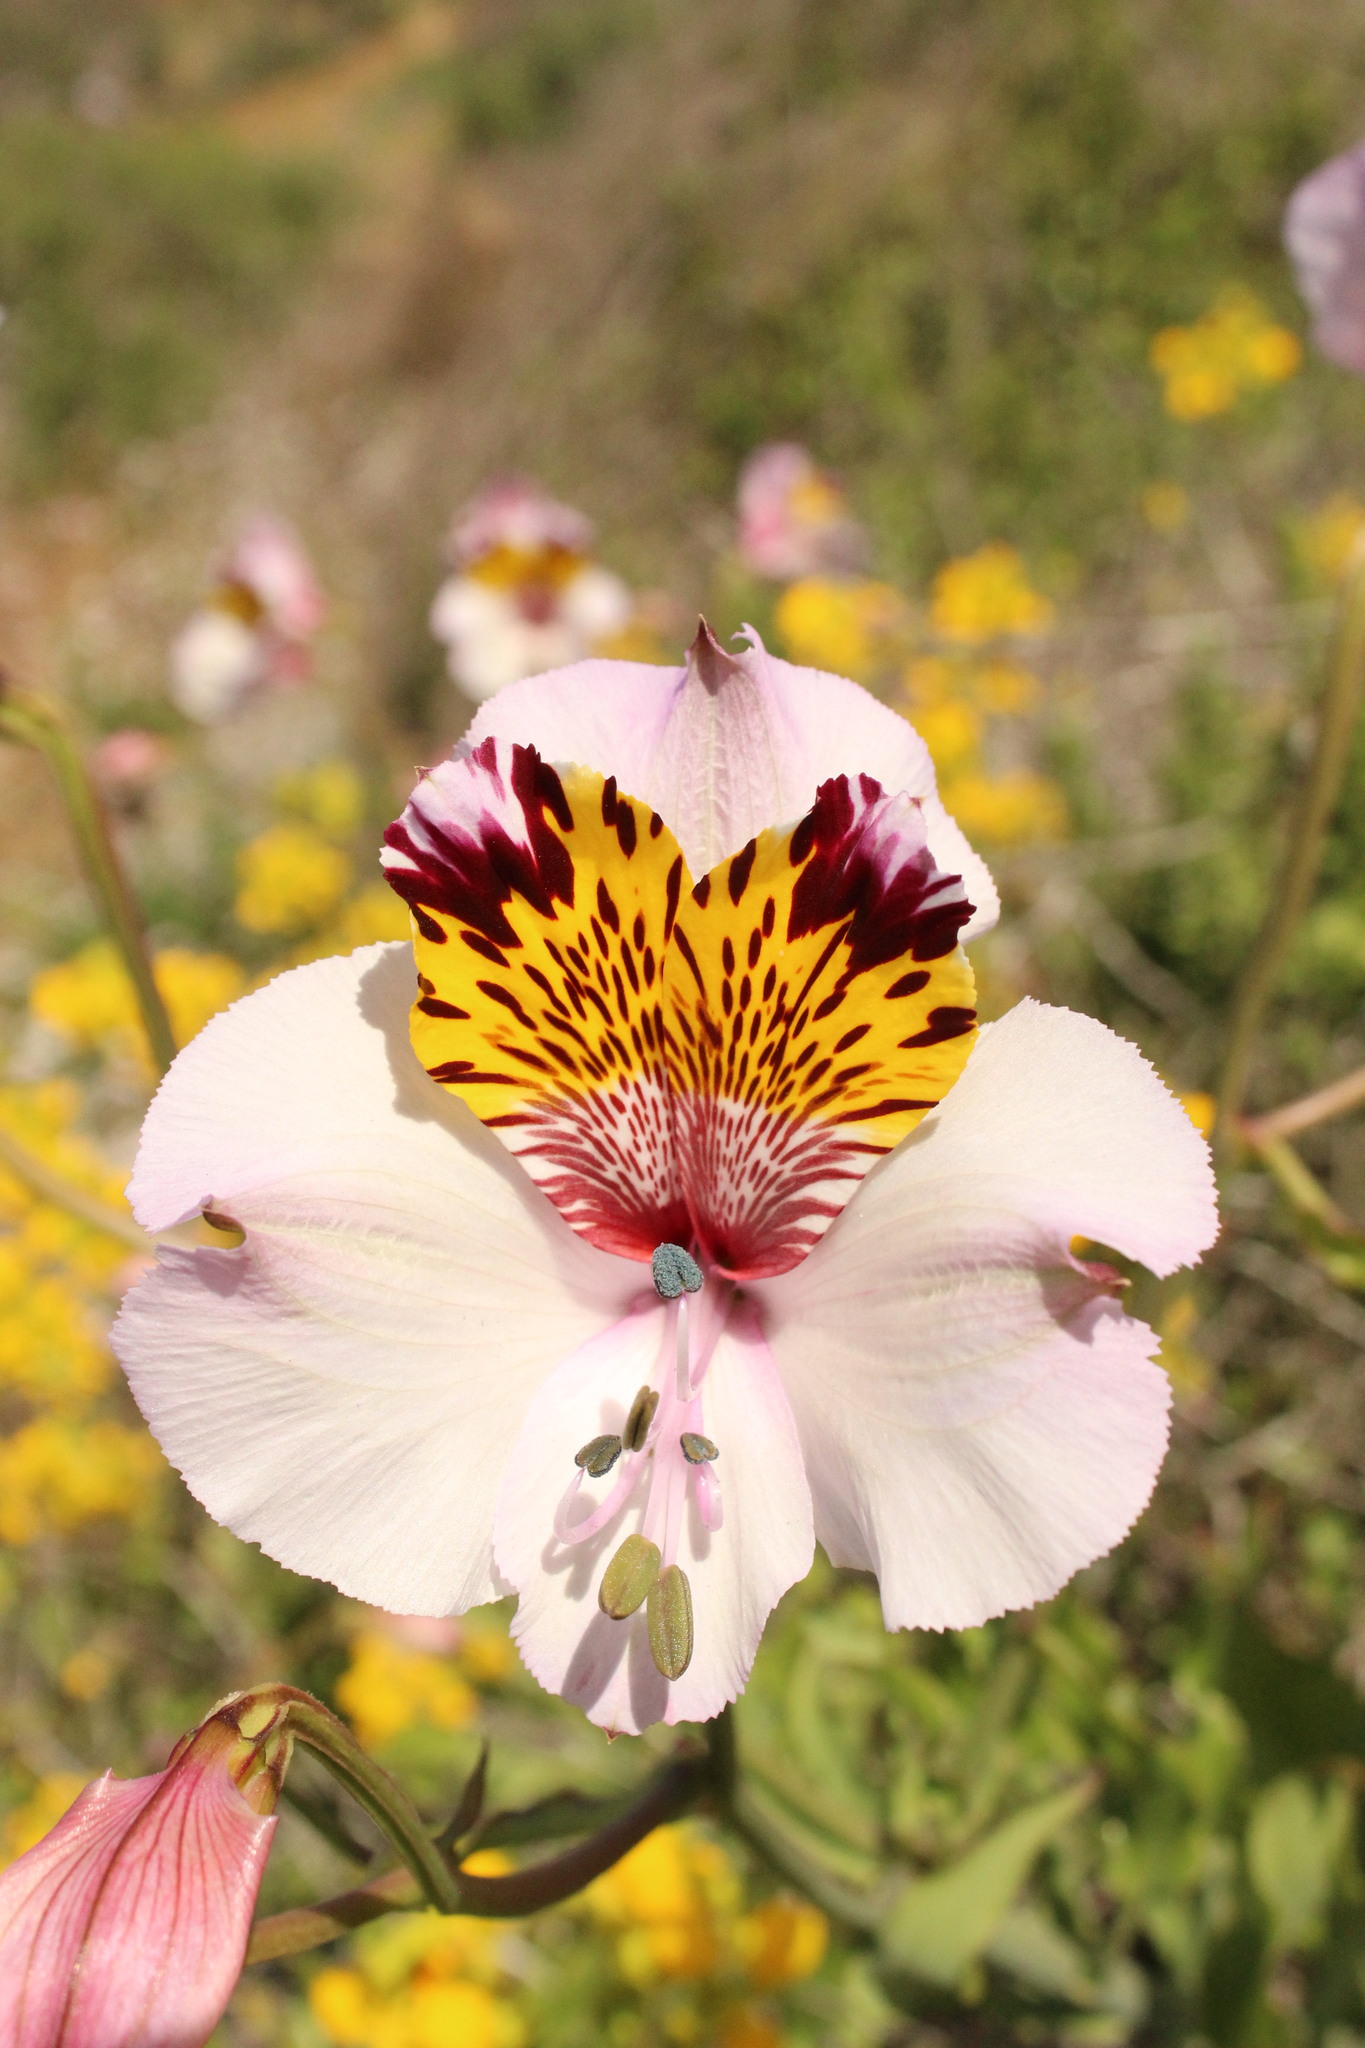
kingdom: Plantae
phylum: Tracheophyta
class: Liliopsida
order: Liliales
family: Alstroemeriaceae
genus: Alstroemeria
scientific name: Alstroemeria pulchra
